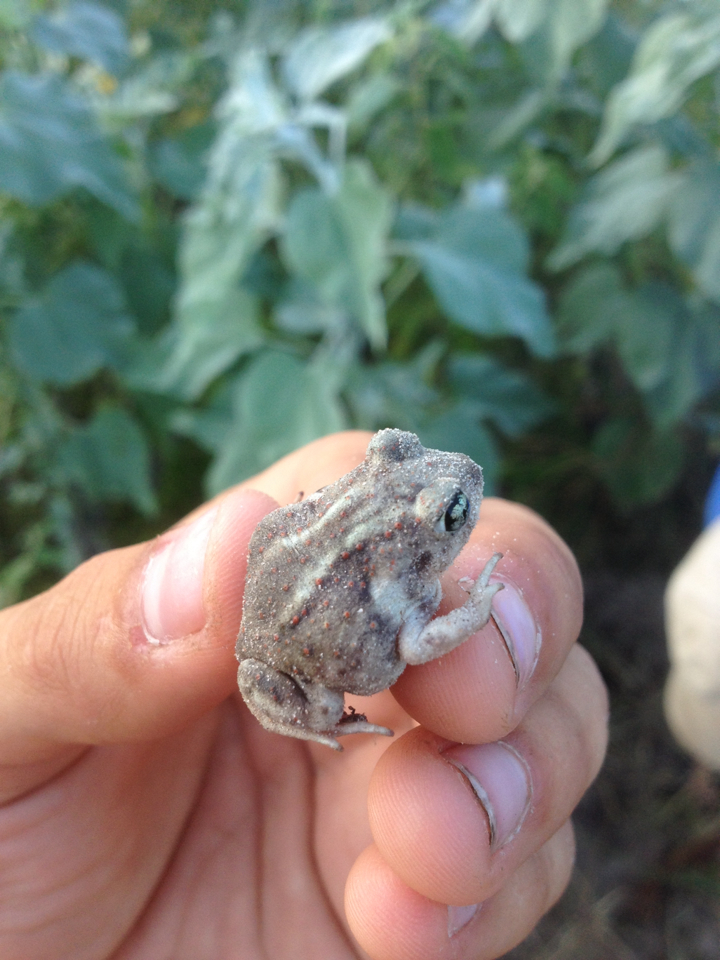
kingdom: Animalia
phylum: Chordata
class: Amphibia
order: Anura
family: Scaphiopodidae
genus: Scaphiopus
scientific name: Scaphiopus hurterii
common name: Hurter's spadefoot toad
